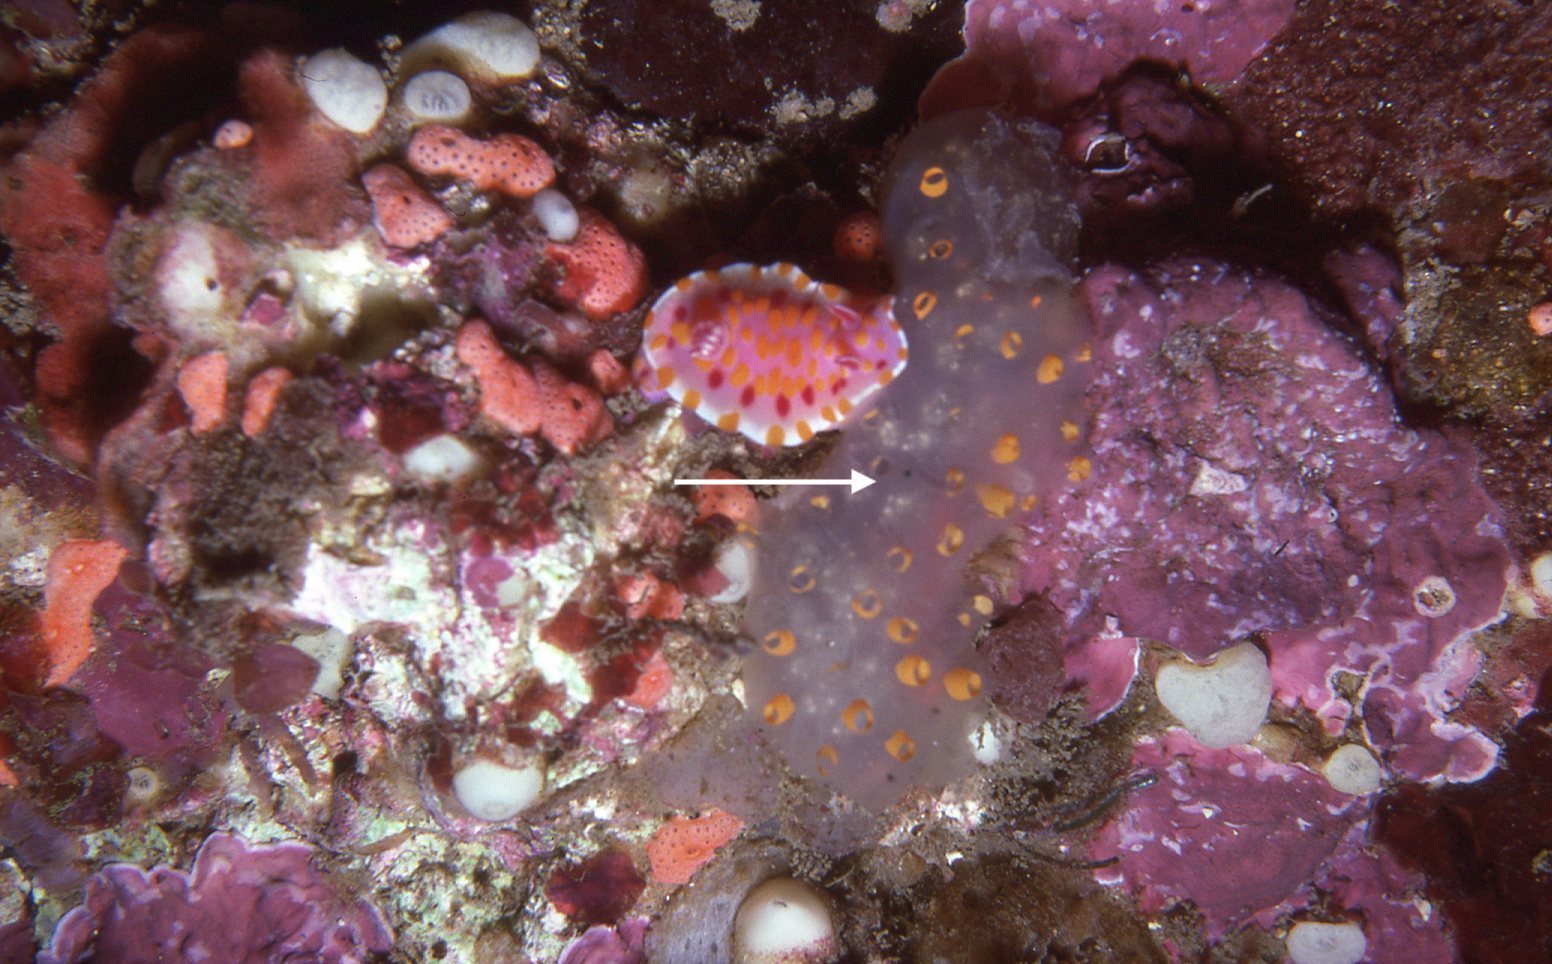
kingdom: Animalia
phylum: Chordata
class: Ascidiacea
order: Aplousobranchia
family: Polycitoridae
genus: Polycitor
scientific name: Polycitor giganteus
